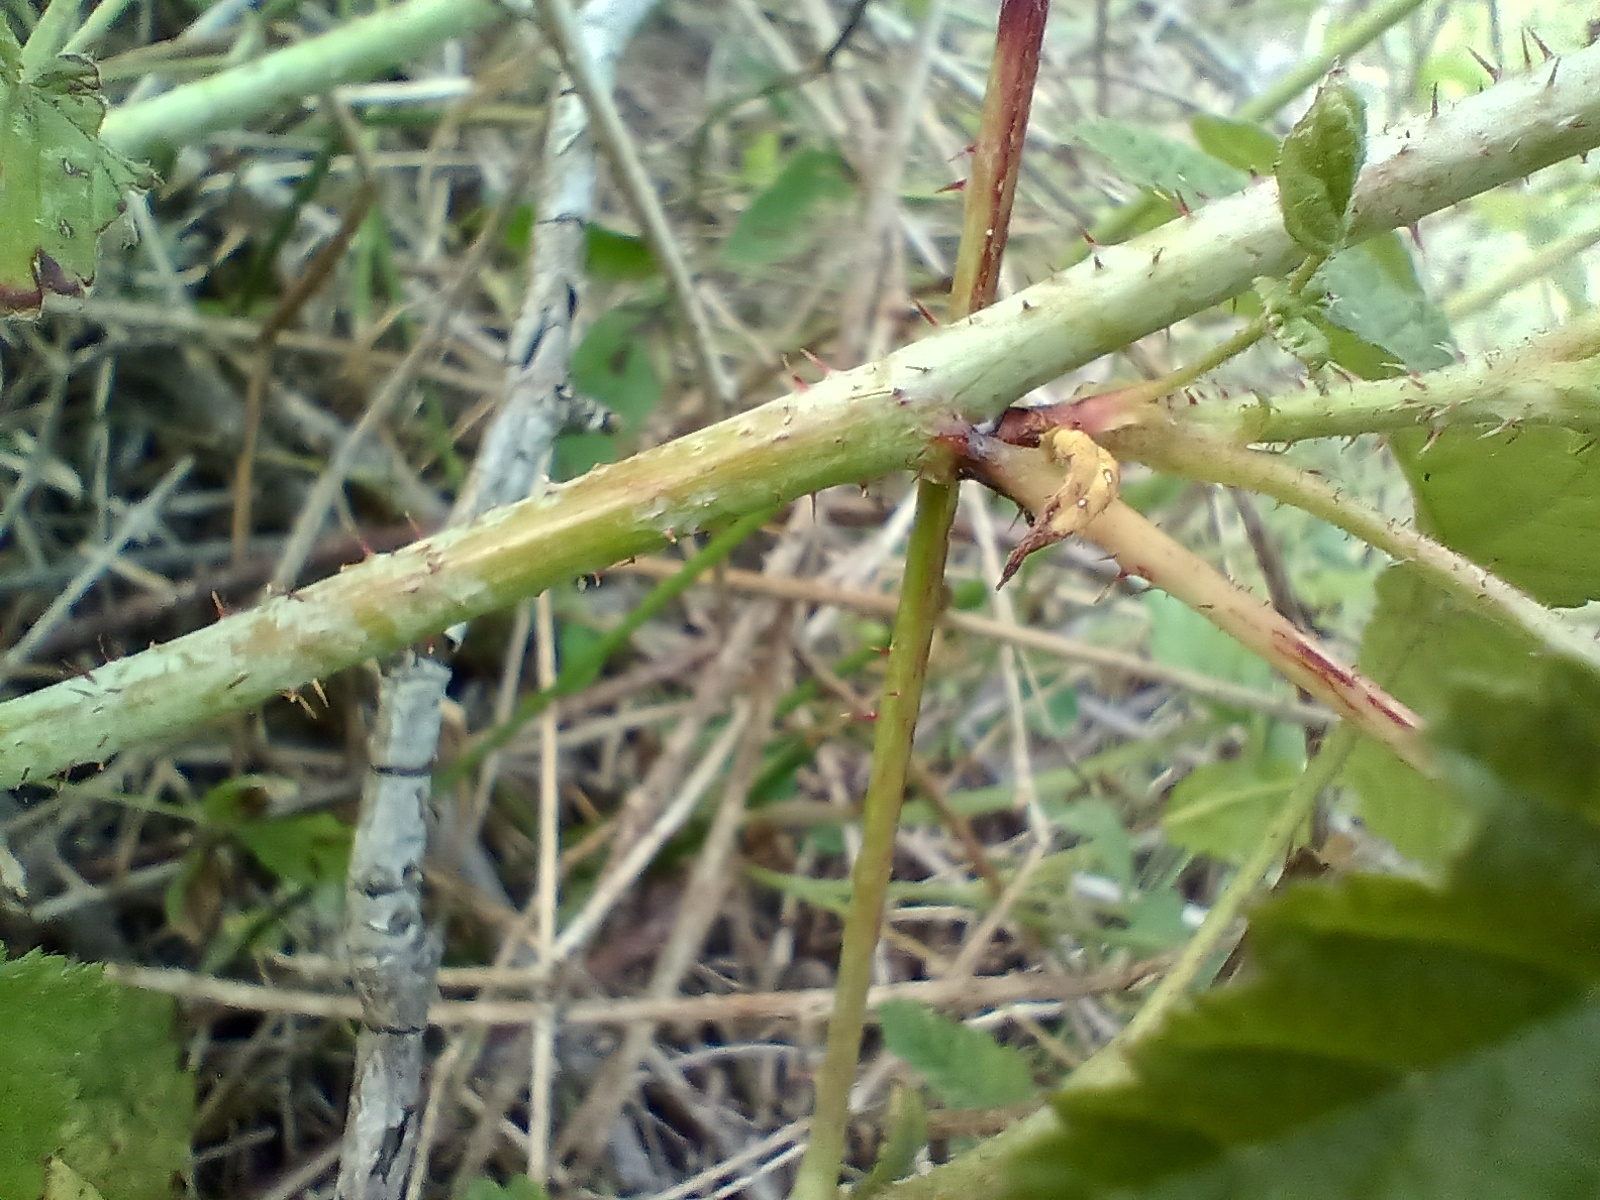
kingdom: Plantae
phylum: Tracheophyta
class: Magnoliopsida
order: Rosales
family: Rosaceae
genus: Rubus
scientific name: Rubus caesius
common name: Dewberry
